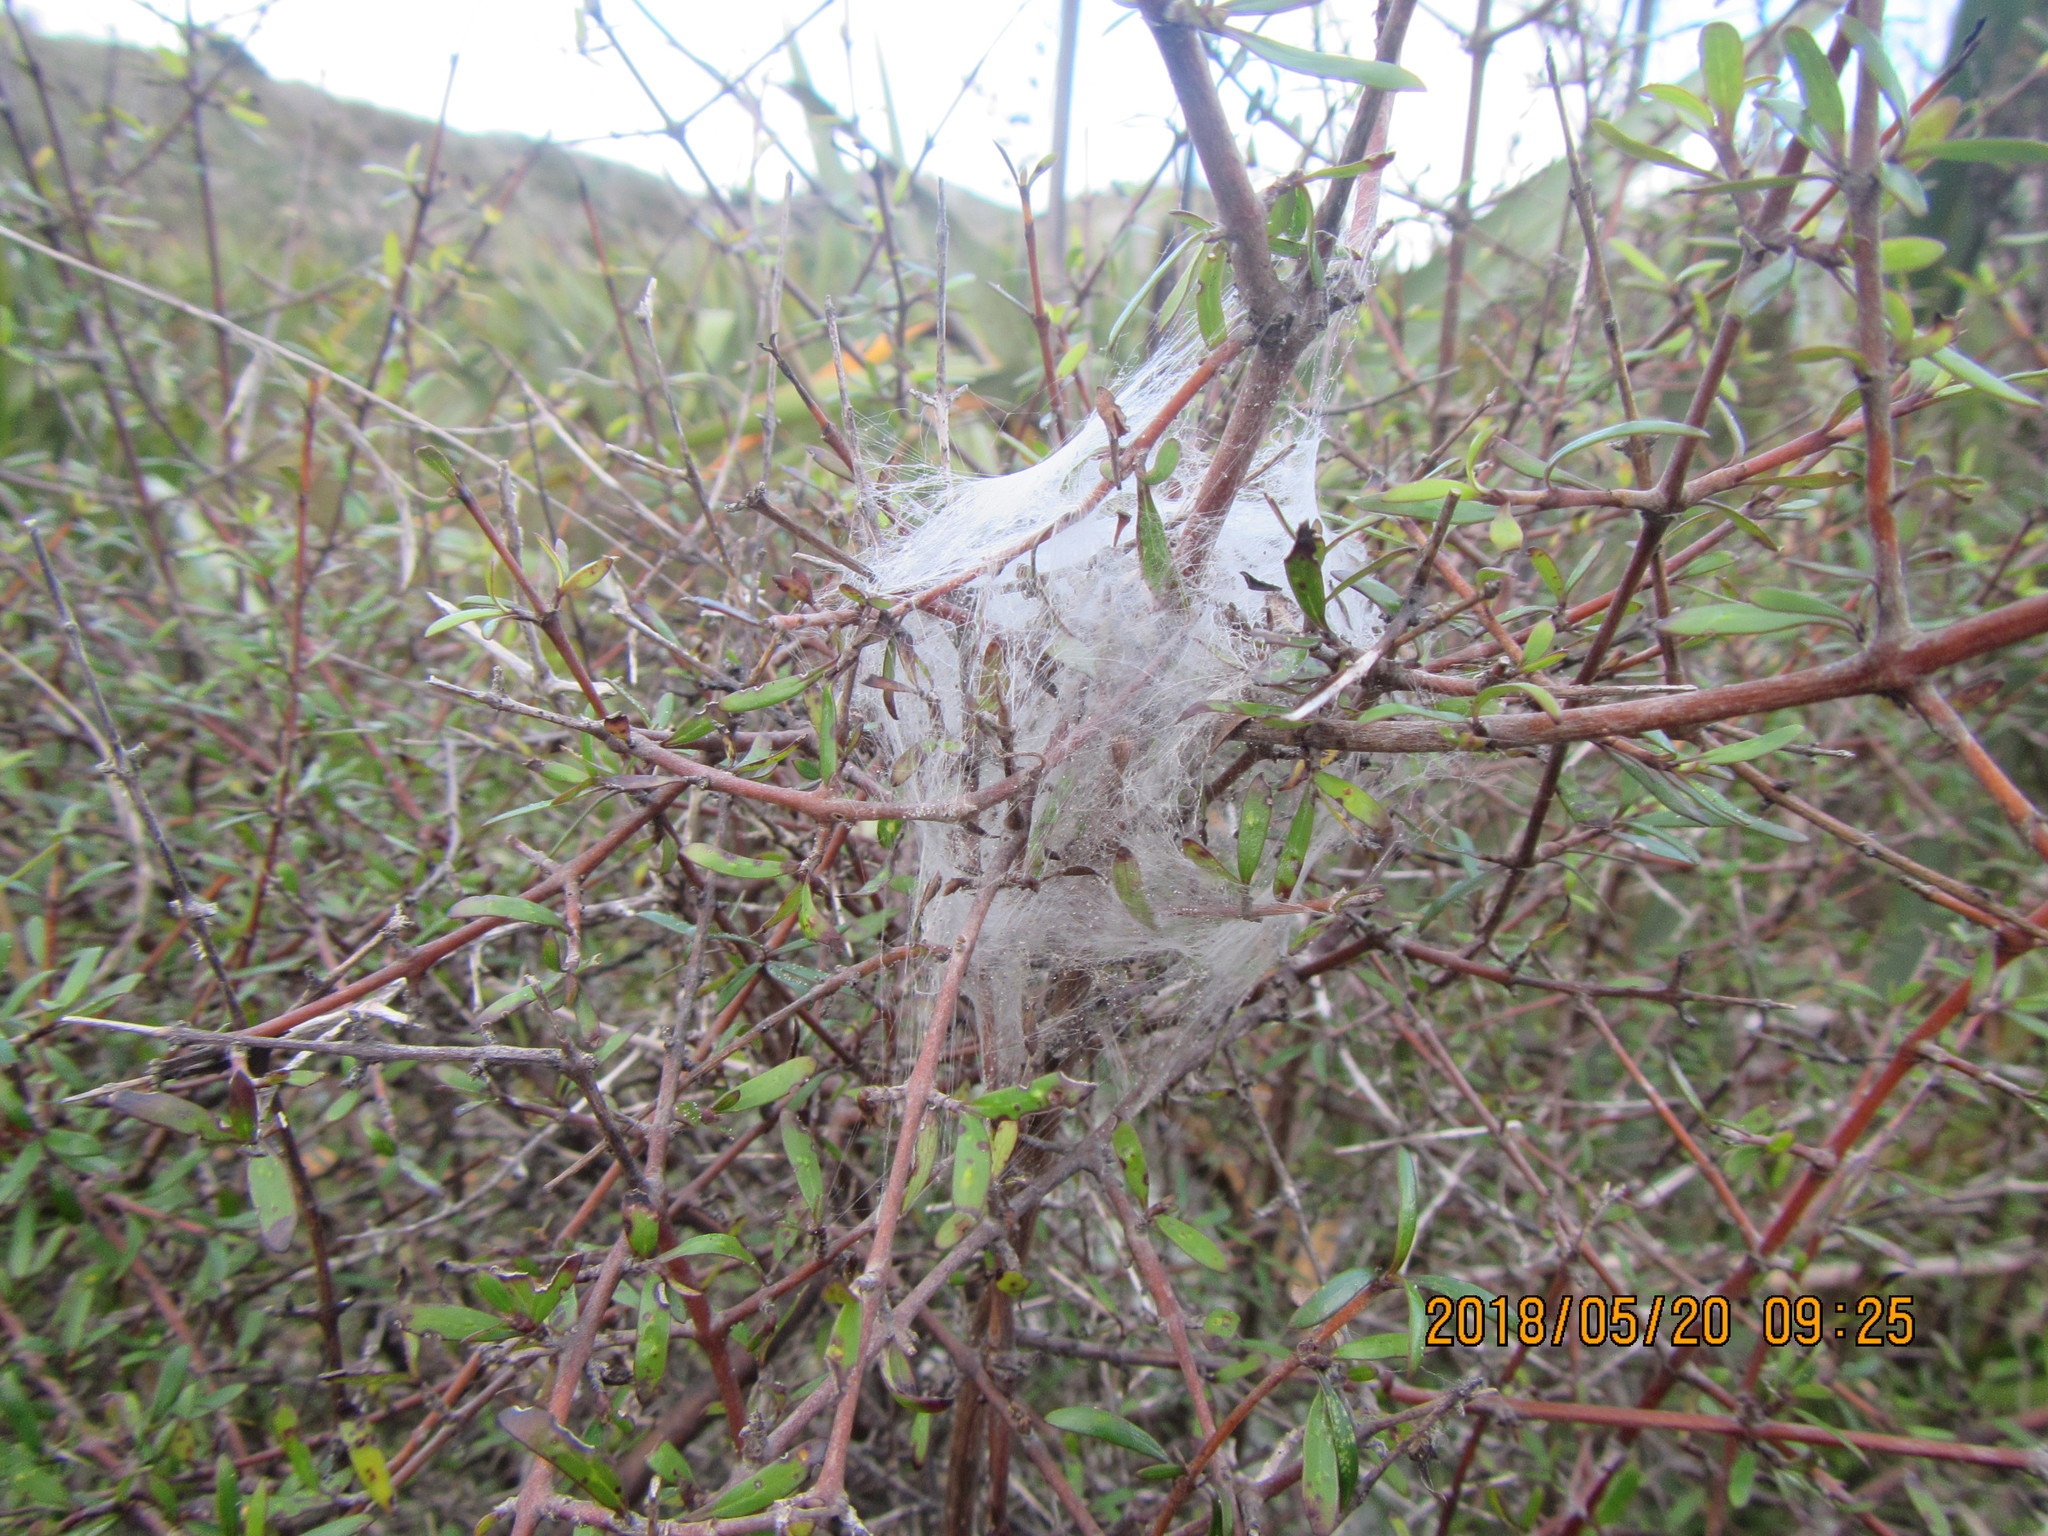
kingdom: Plantae
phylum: Tracheophyta
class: Magnoliopsida
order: Gentianales
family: Rubiaceae
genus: Coprosma
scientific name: Coprosma propinqua
